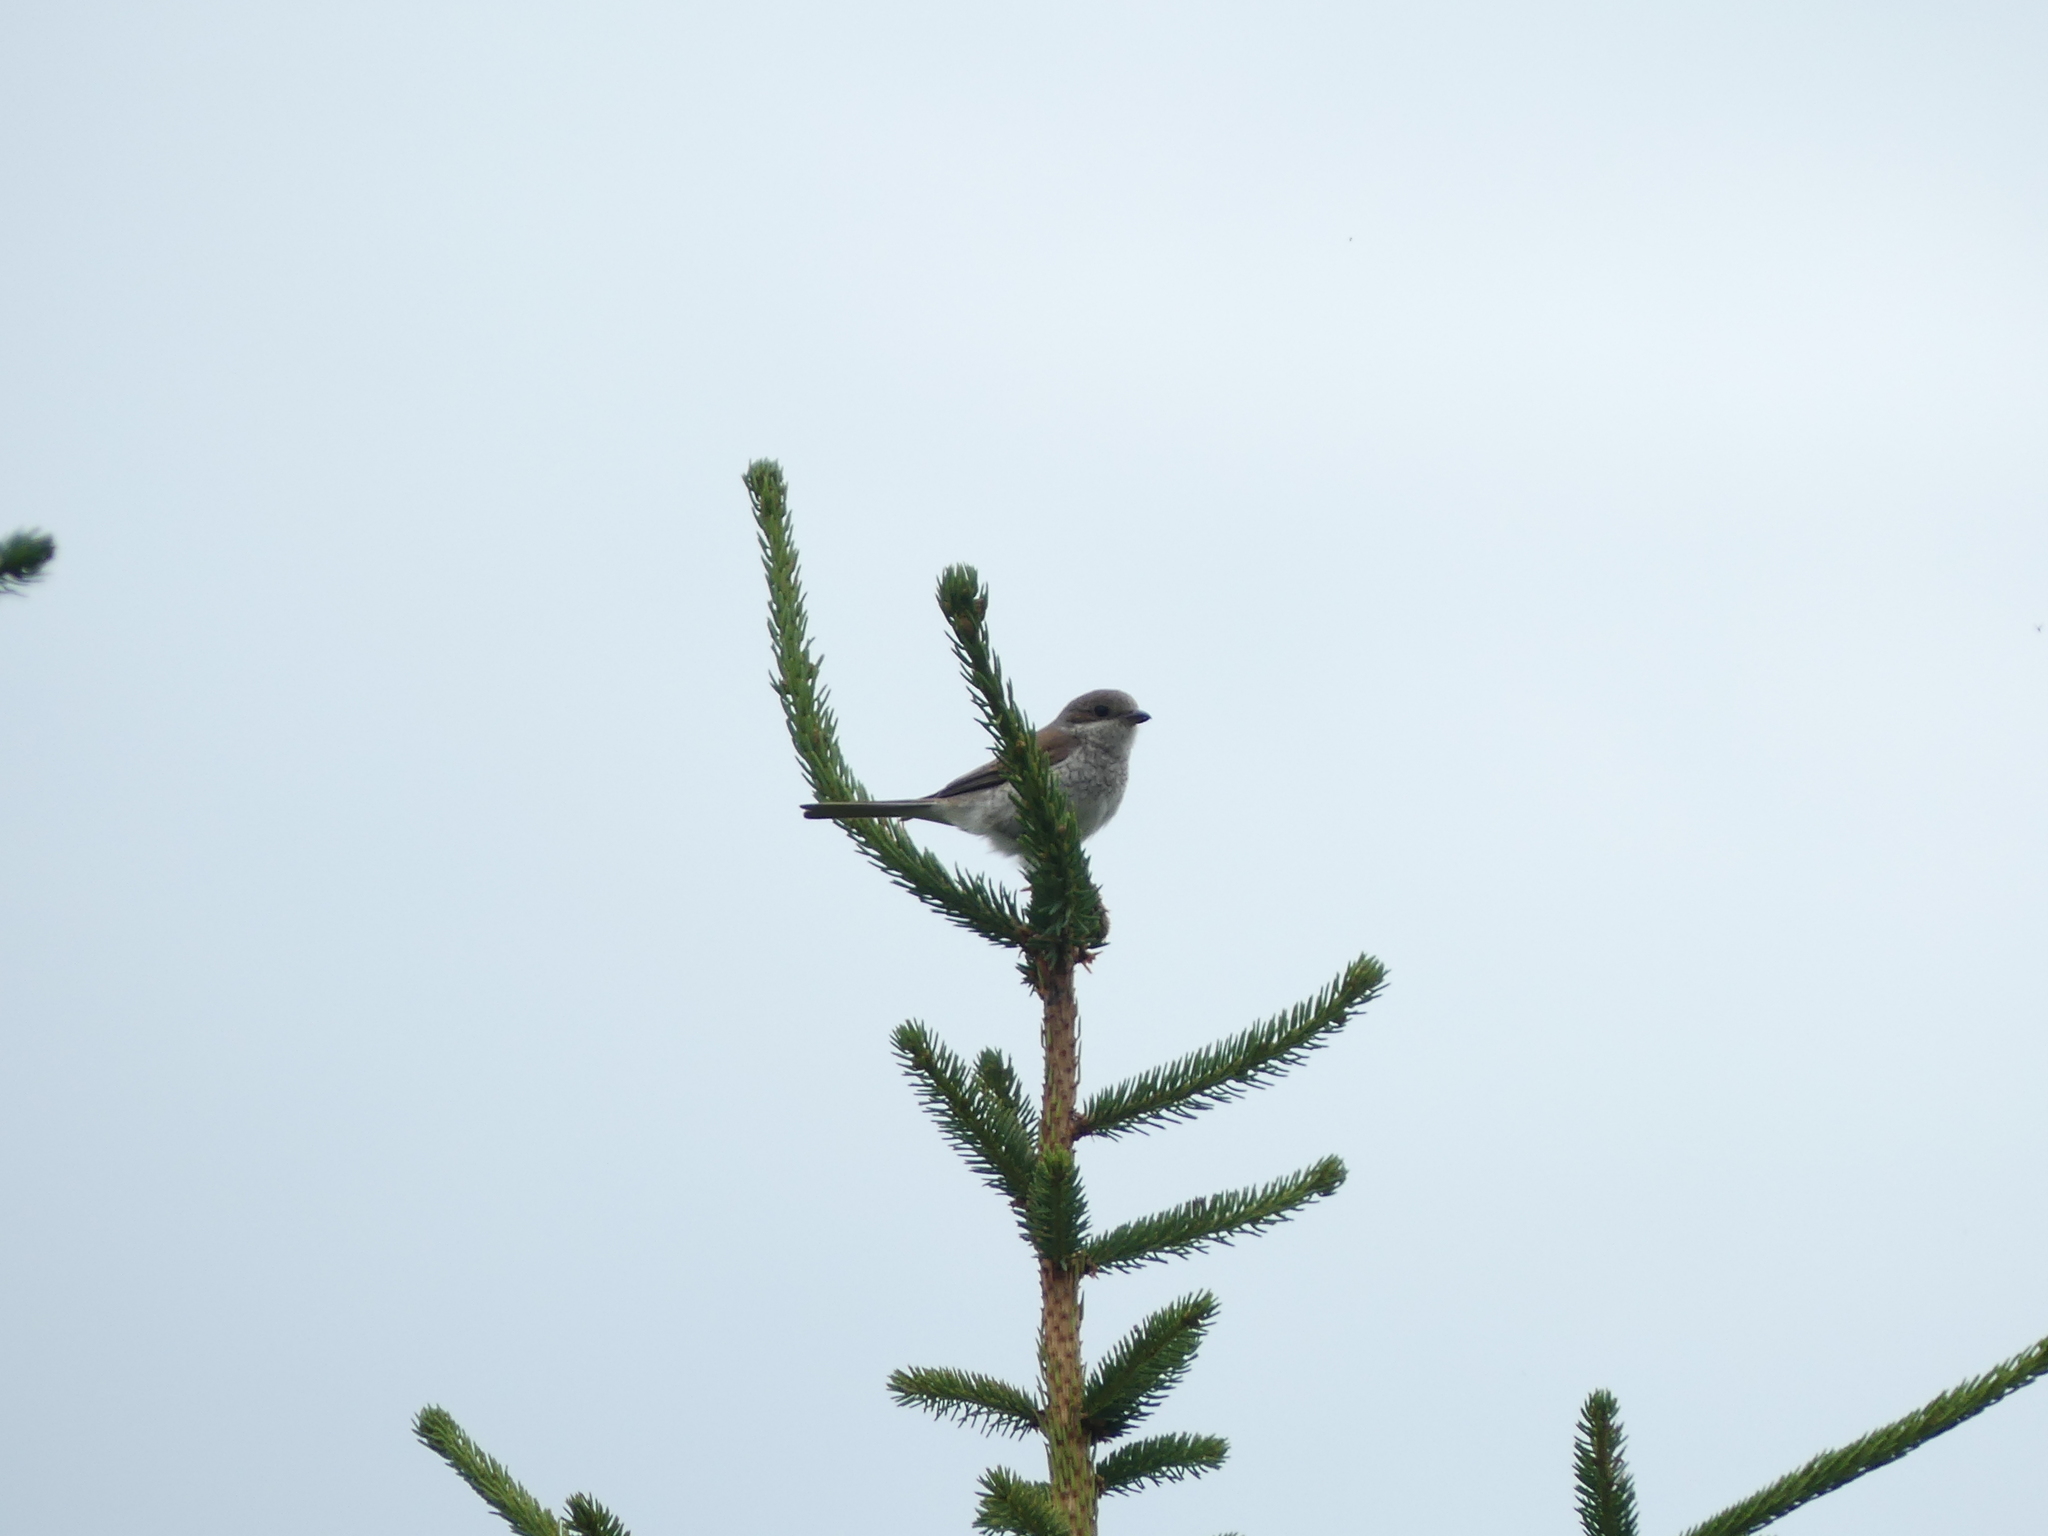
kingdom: Animalia
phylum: Chordata
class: Aves
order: Passeriformes
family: Laniidae
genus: Lanius
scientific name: Lanius collurio
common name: Red-backed shrike
